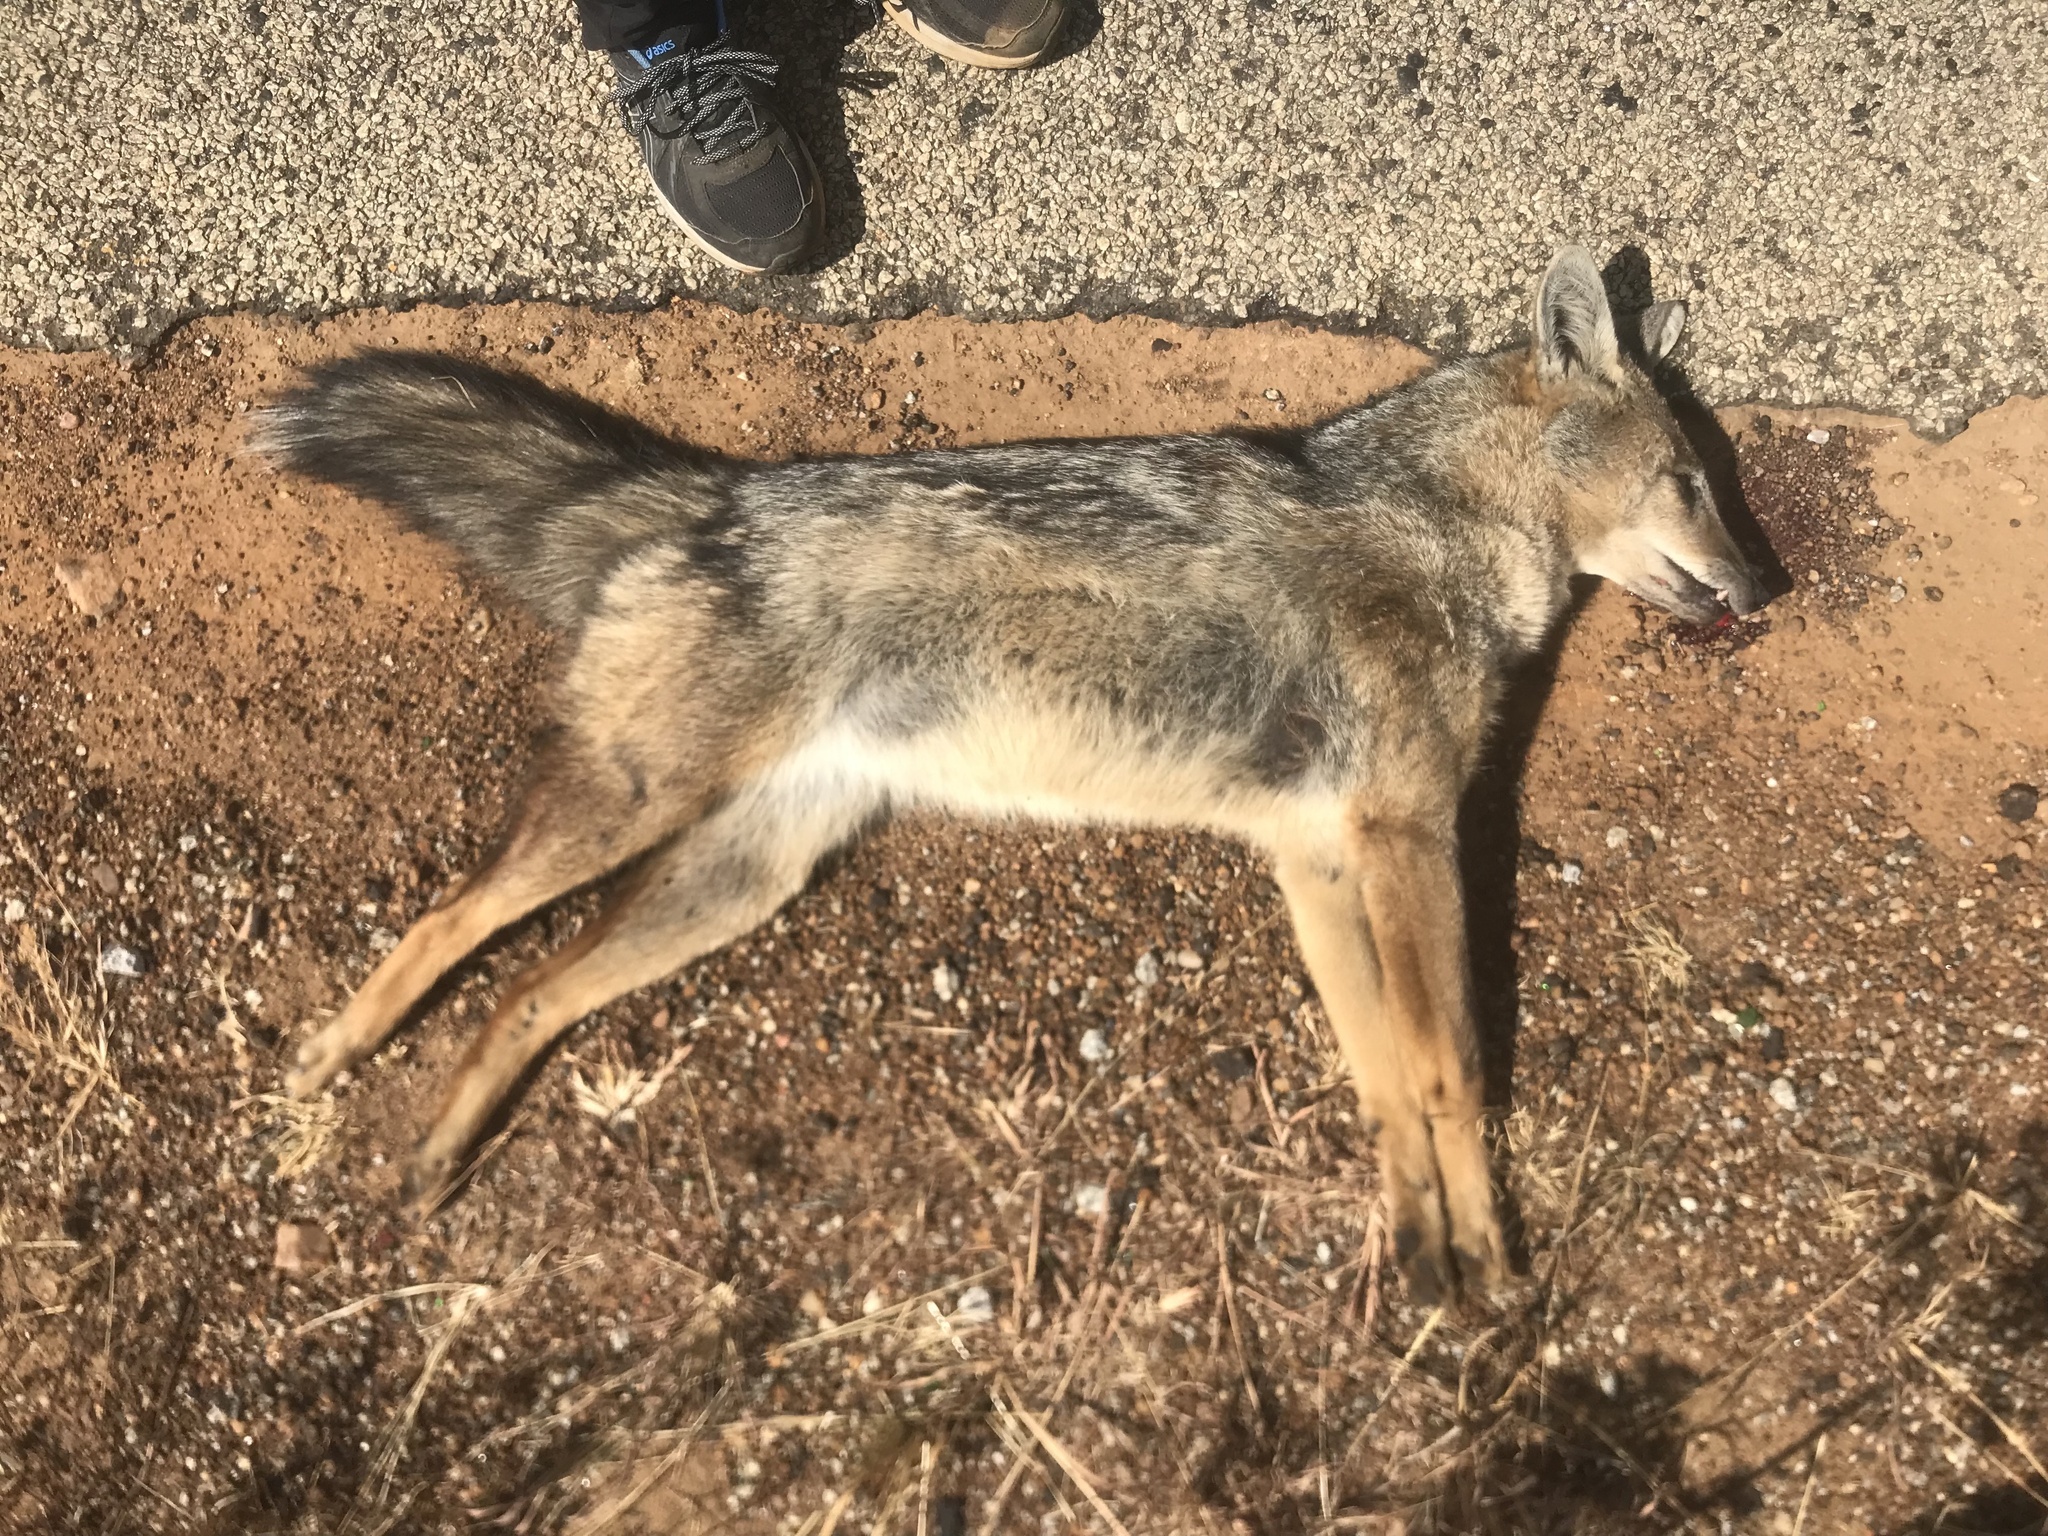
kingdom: Animalia
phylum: Chordata
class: Mammalia
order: Carnivora
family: Canidae
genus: Lupulella
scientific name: Lupulella
